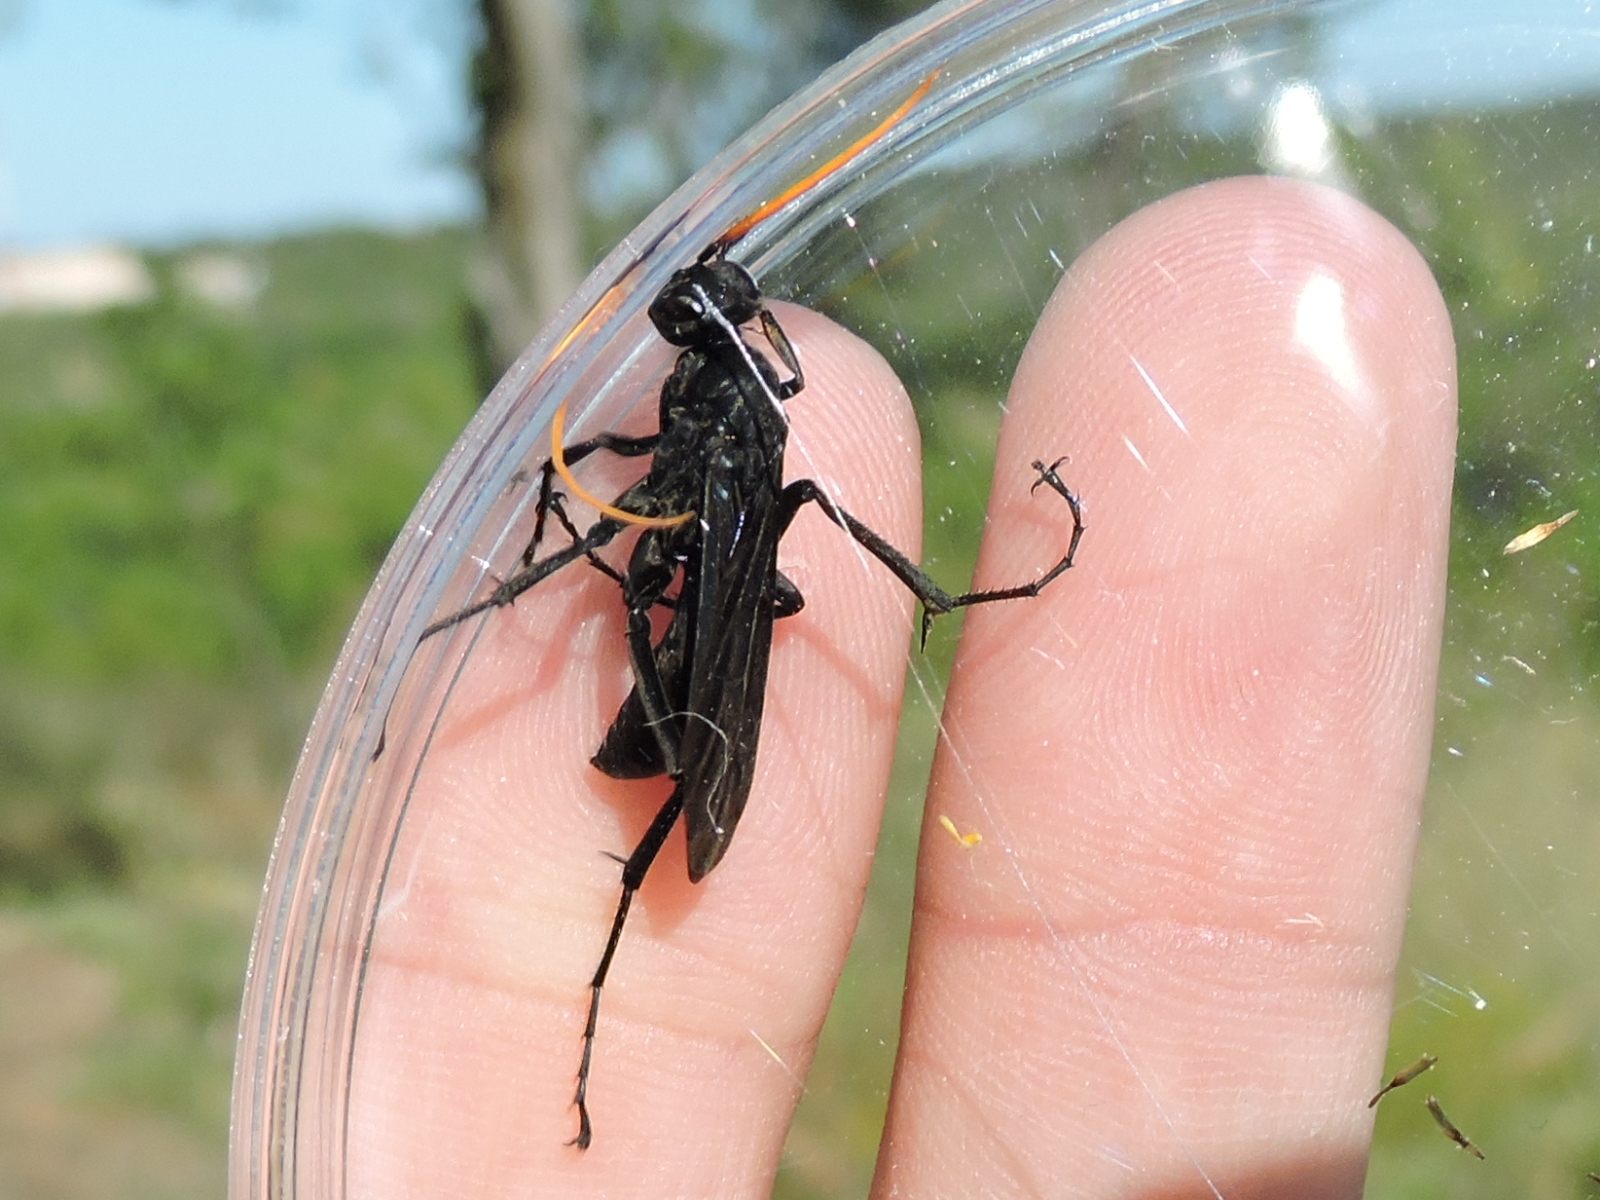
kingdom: Animalia
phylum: Arthropoda
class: Insecta
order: Hymenoptera
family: Pompilidae
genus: Entypus
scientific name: Entypus
